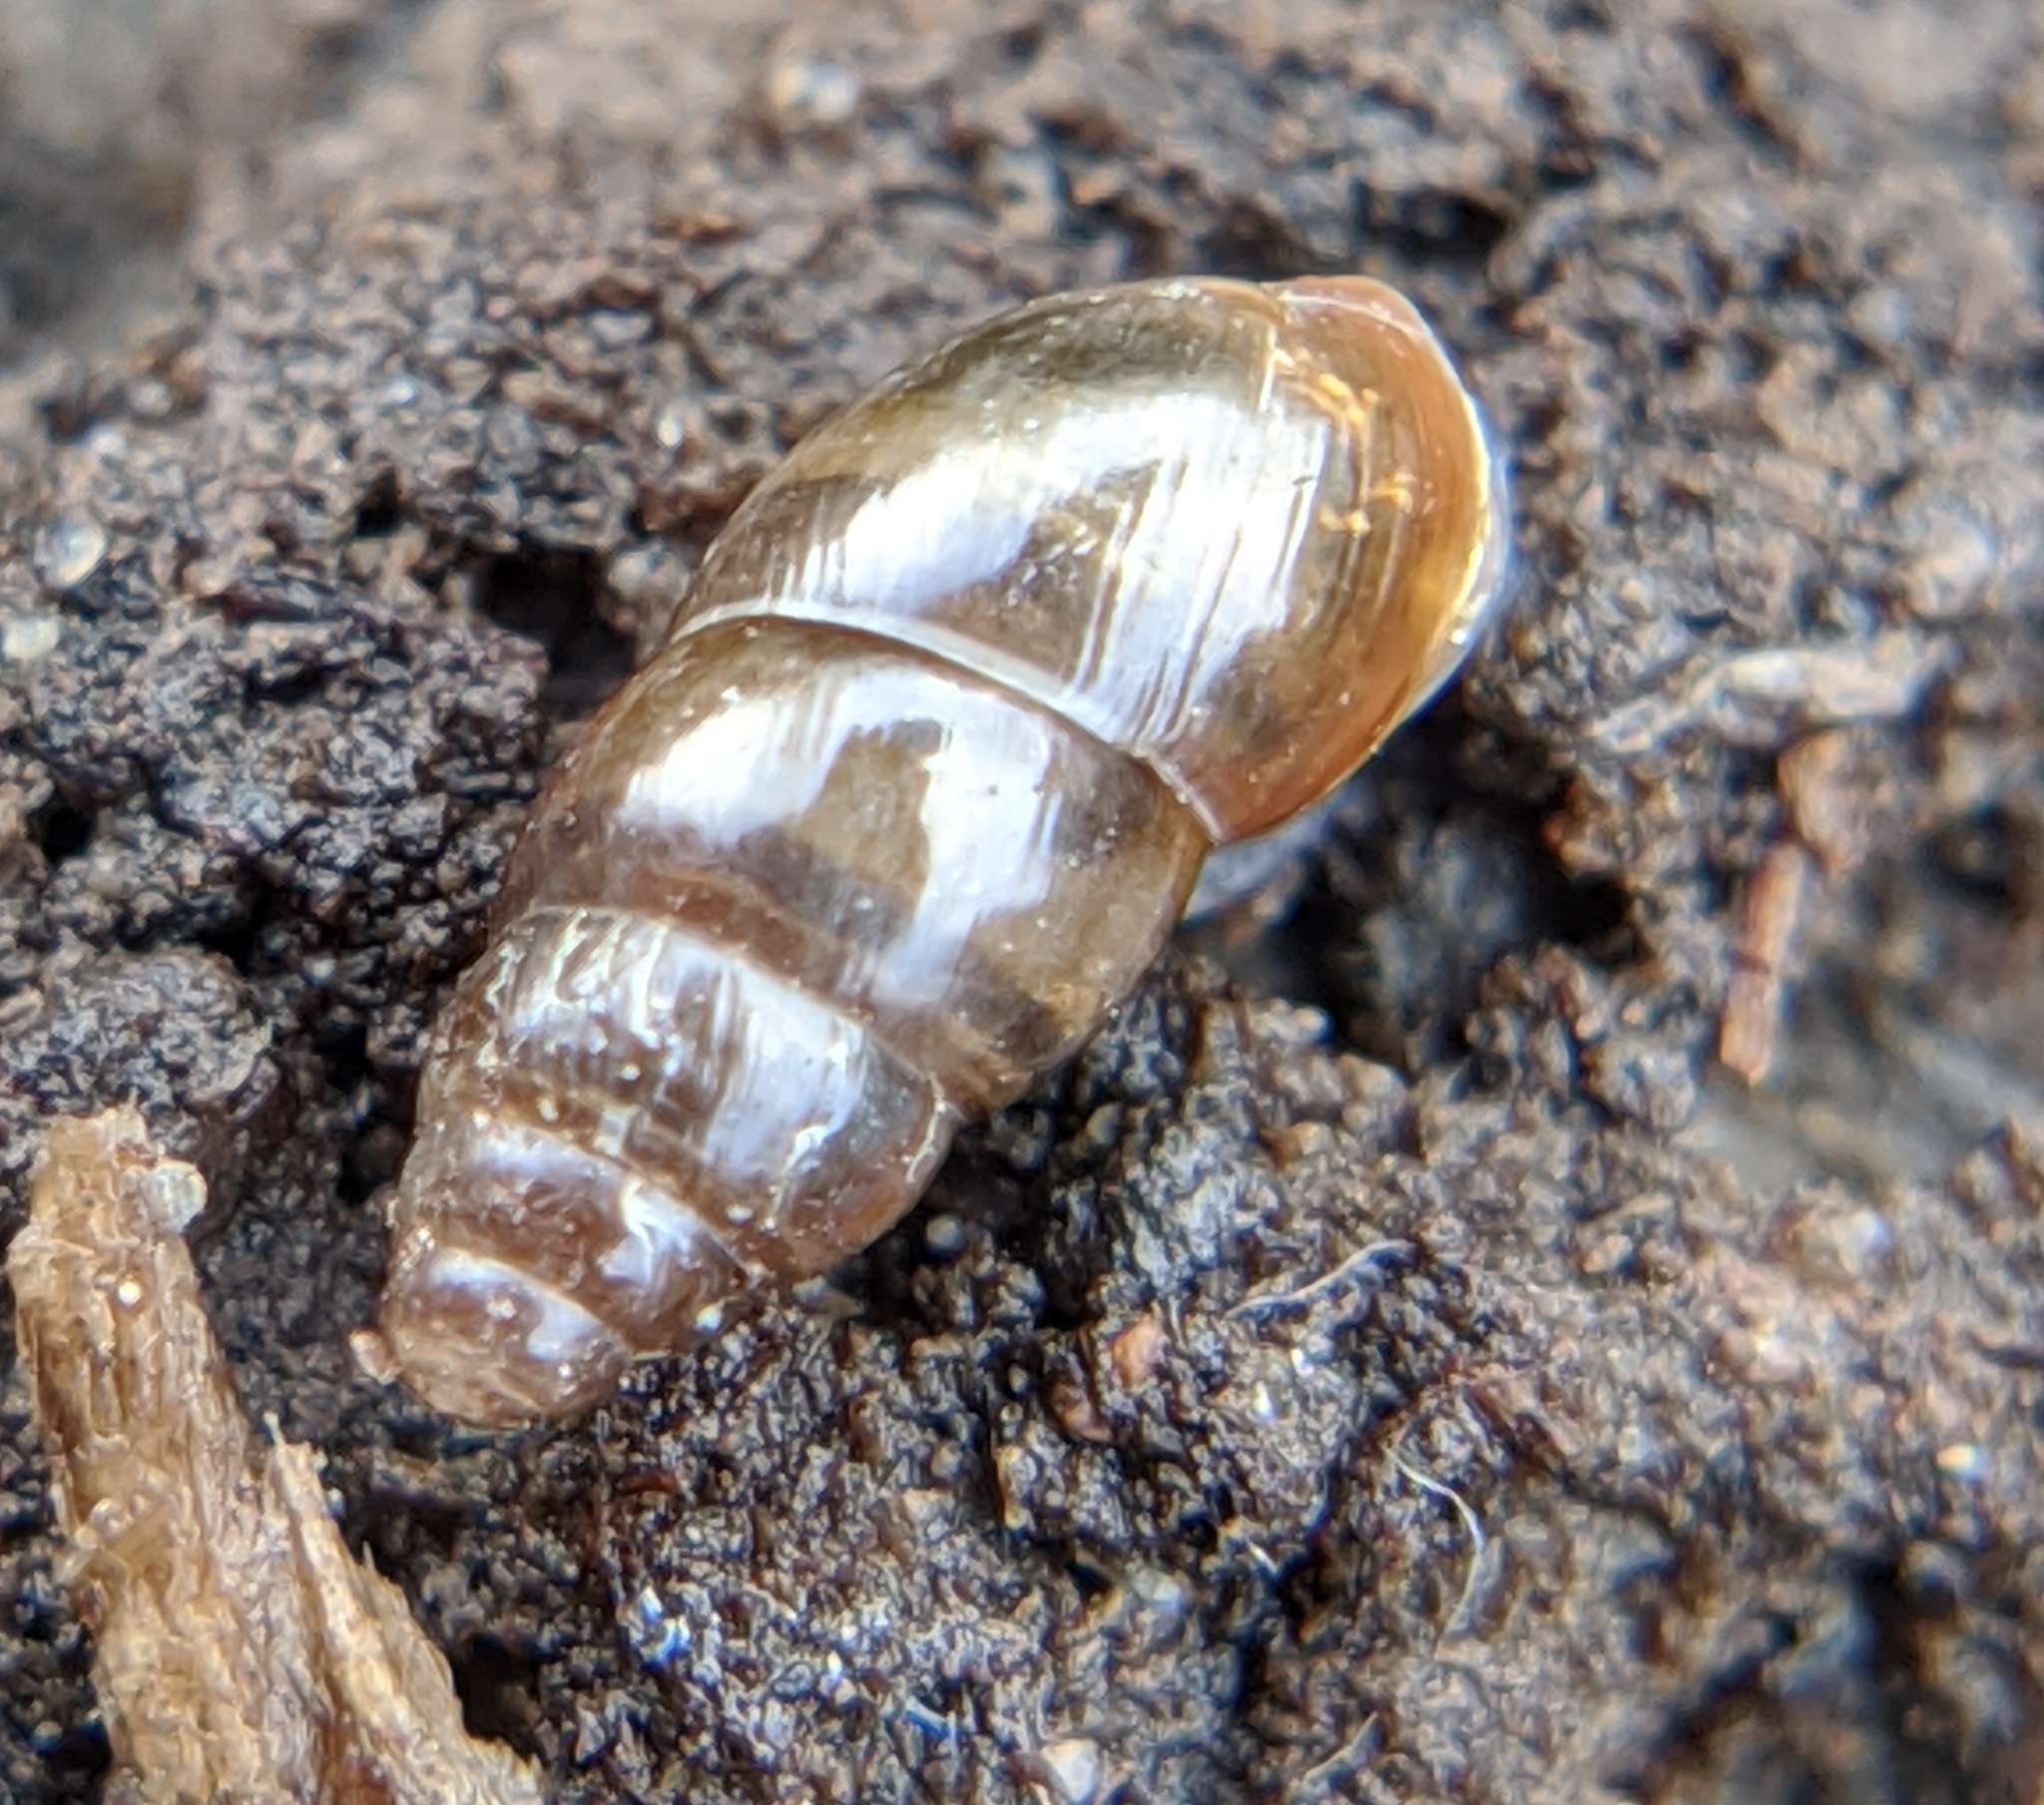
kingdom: Animalia
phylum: Mollusca
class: Gastropoda
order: Stylommatophora
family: Cochlicopidae
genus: Cochlicopa
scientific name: Cochlicopa lubrica
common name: Glossy pillar snail
